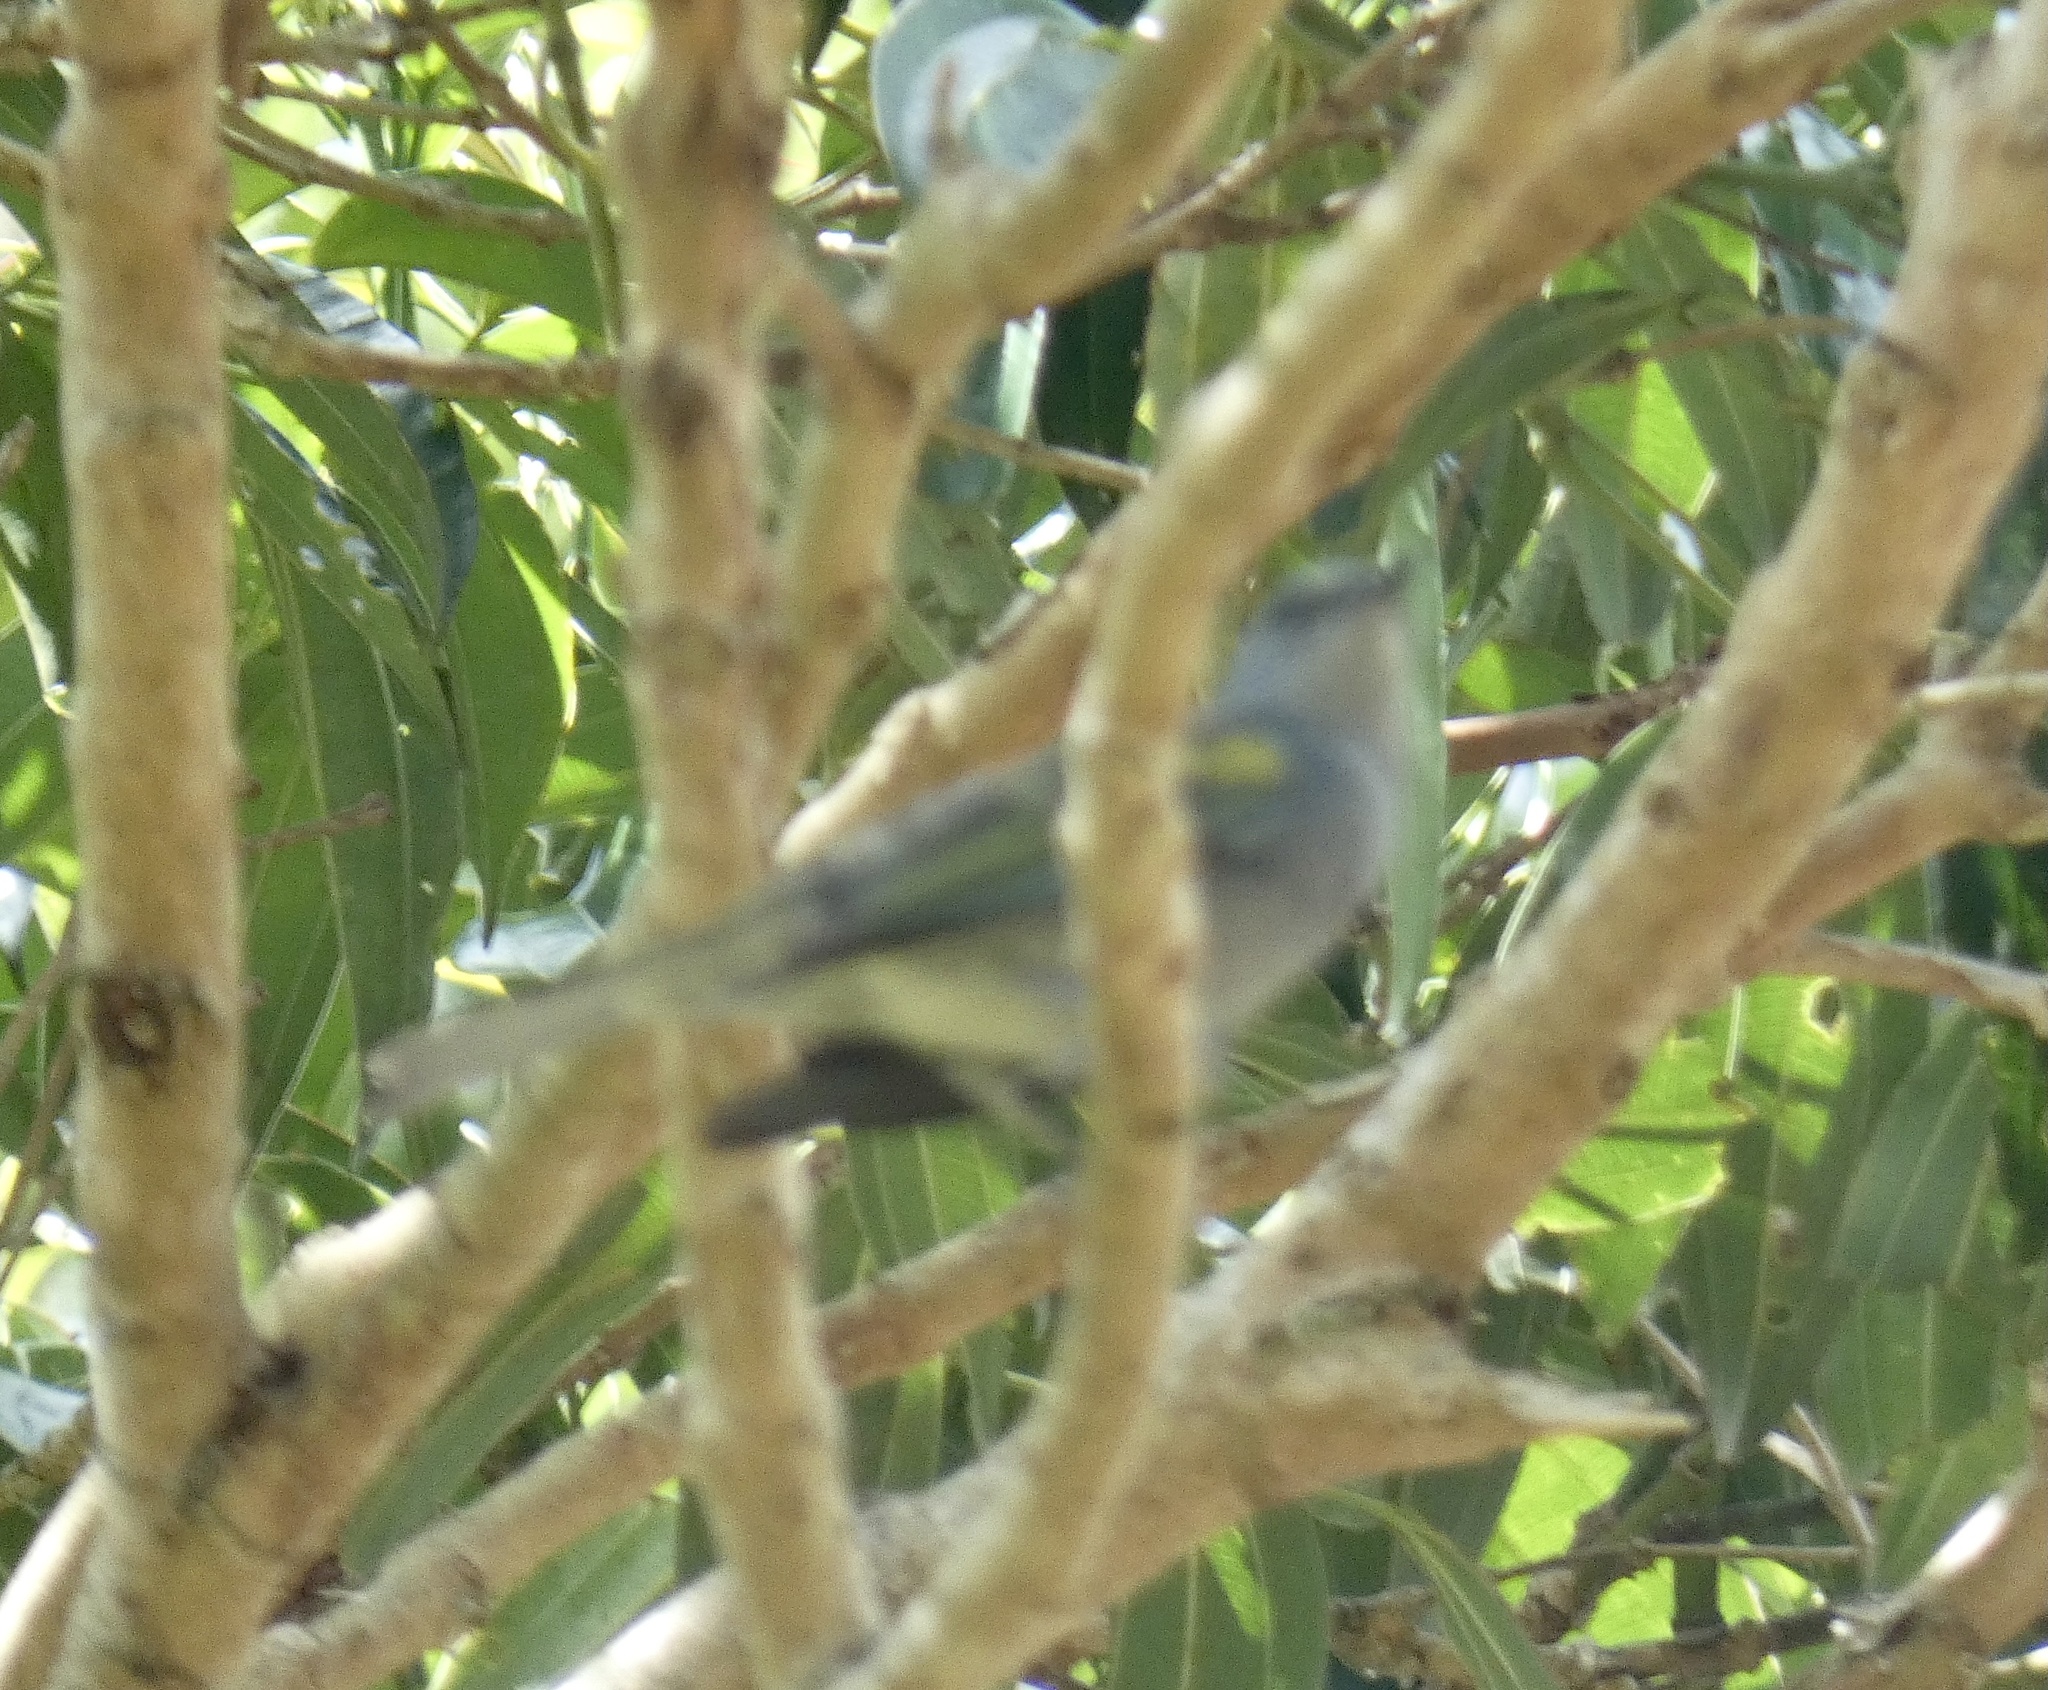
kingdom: Animalia
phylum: Chordata
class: Aves
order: Passeriformes
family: Thraupidae
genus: Thraupis
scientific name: Thraupis ornata
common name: Golden-chevroned tanager
